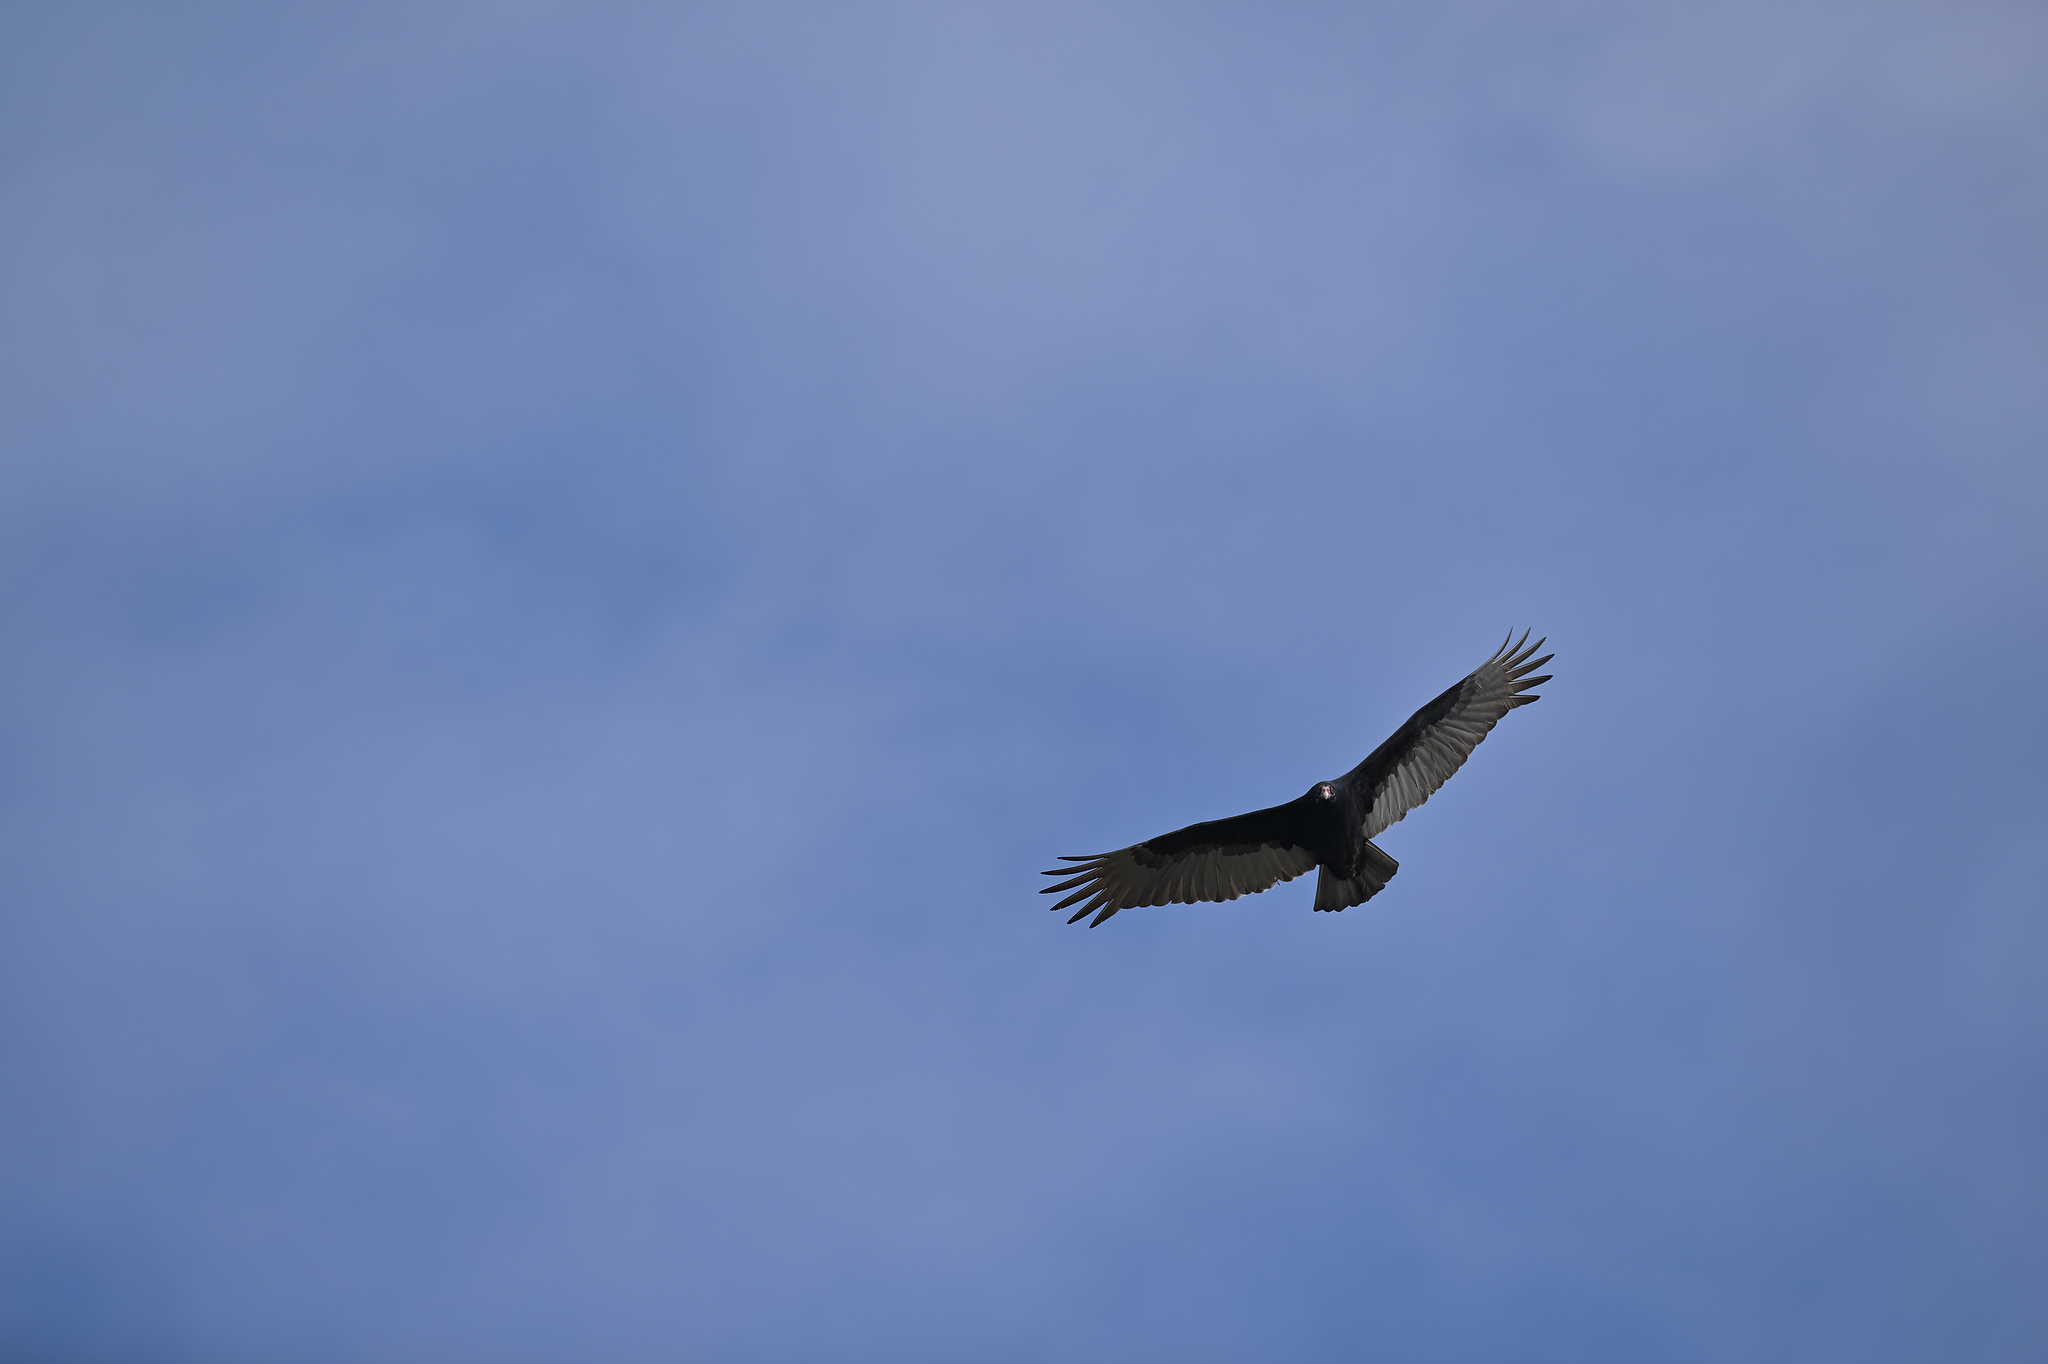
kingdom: Animalia
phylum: Chordata
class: Aves
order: Accipitriformes
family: Cathartidae
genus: Cathartes
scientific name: Cathartes aura
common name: Turkey vulture
